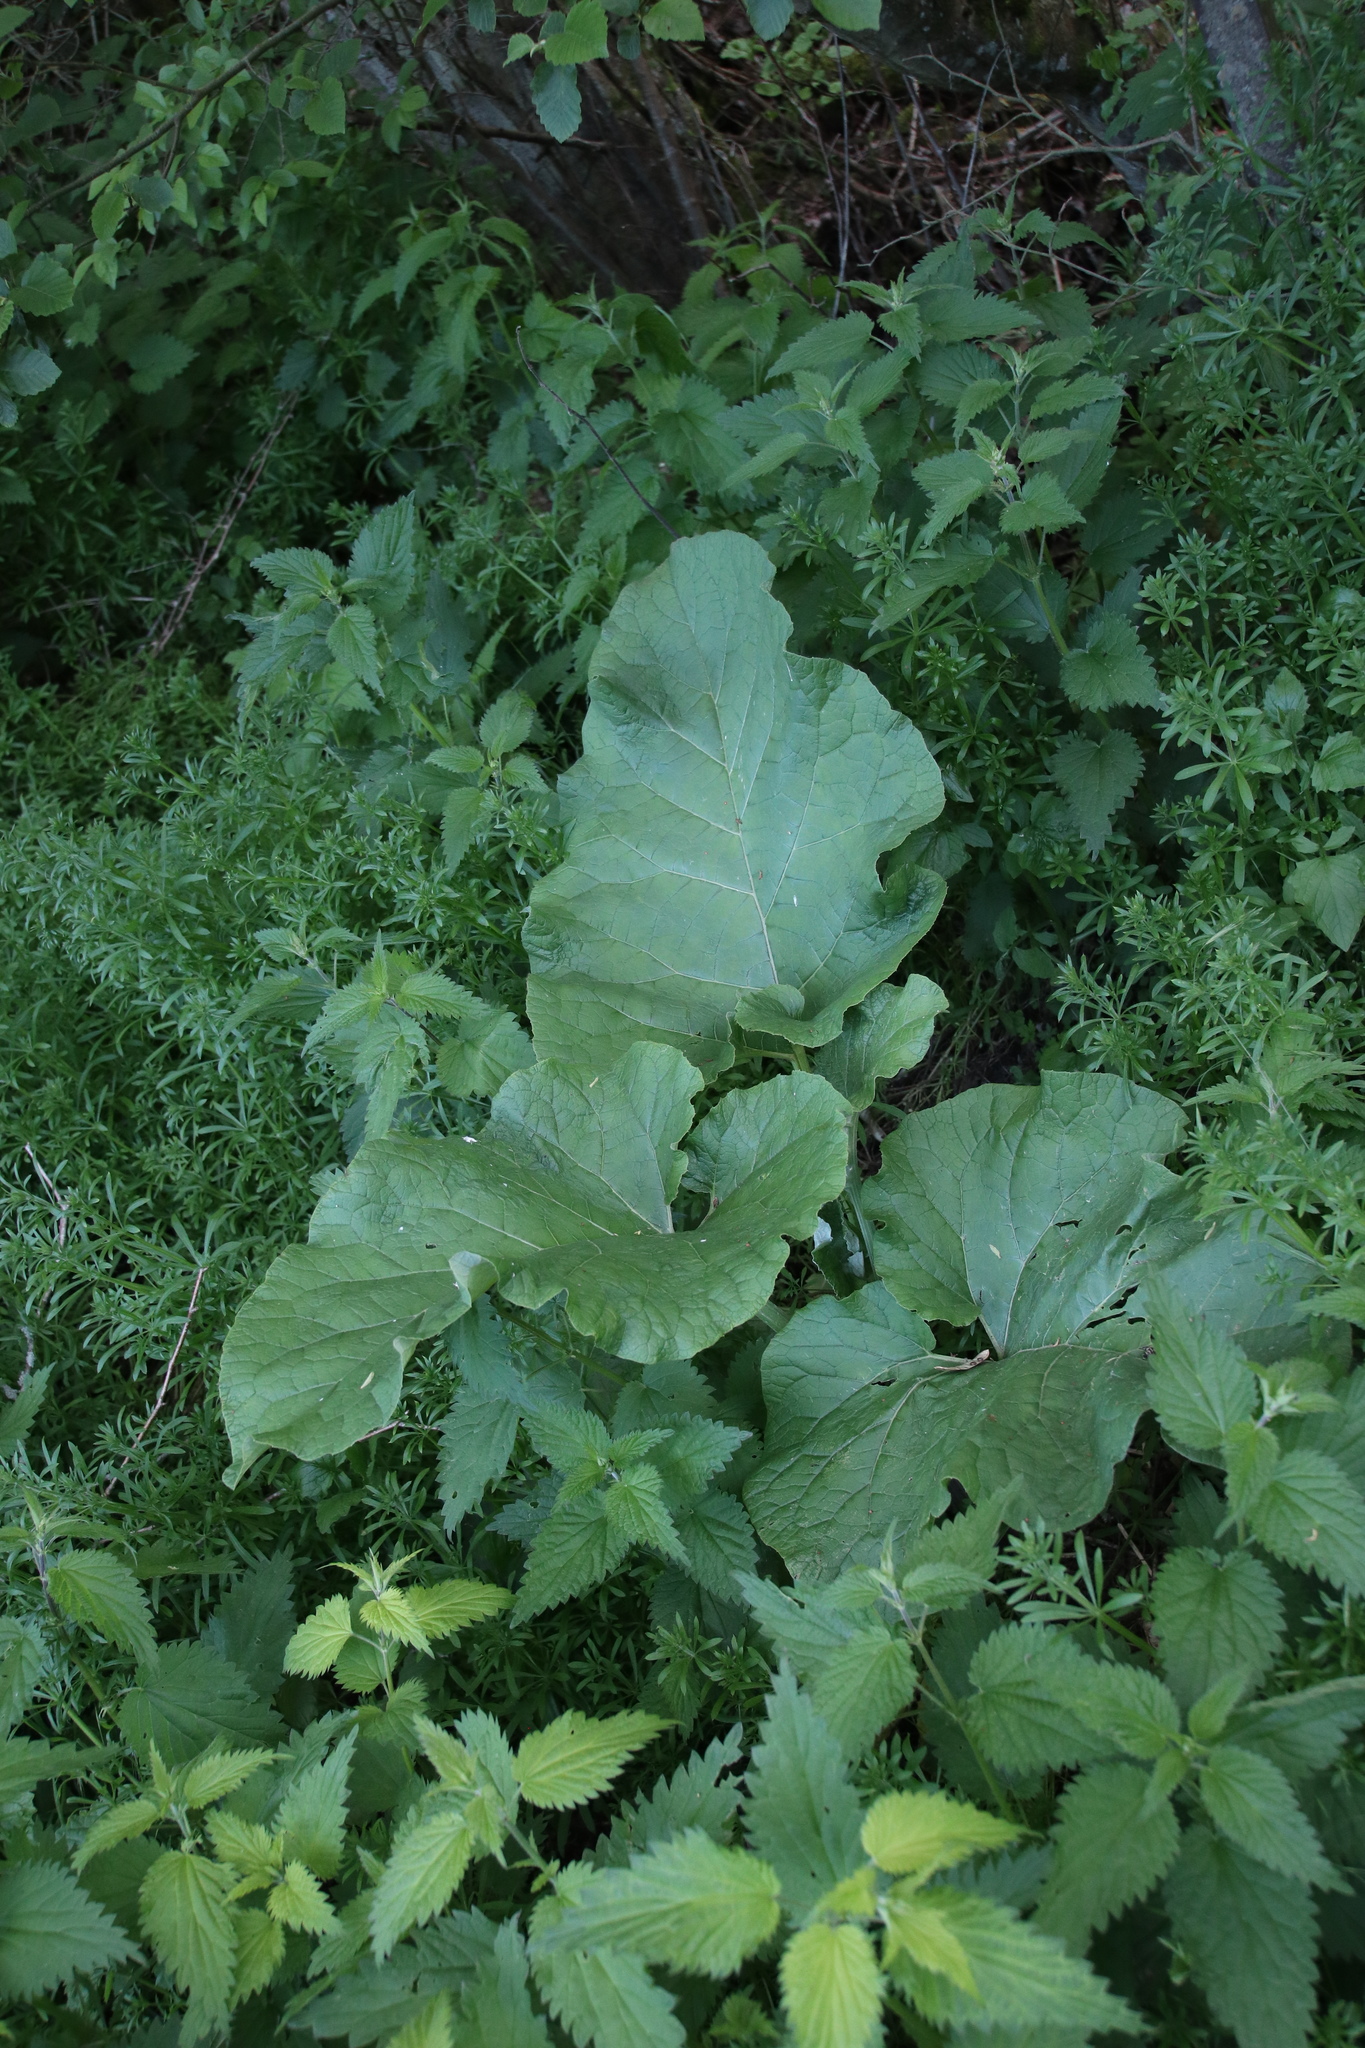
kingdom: Plantae
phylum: Tracheophyta
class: Magnoliopsida
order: Asterales
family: Asteraceae
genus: Arctium
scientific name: Arctium lappa
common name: Greater burdock
